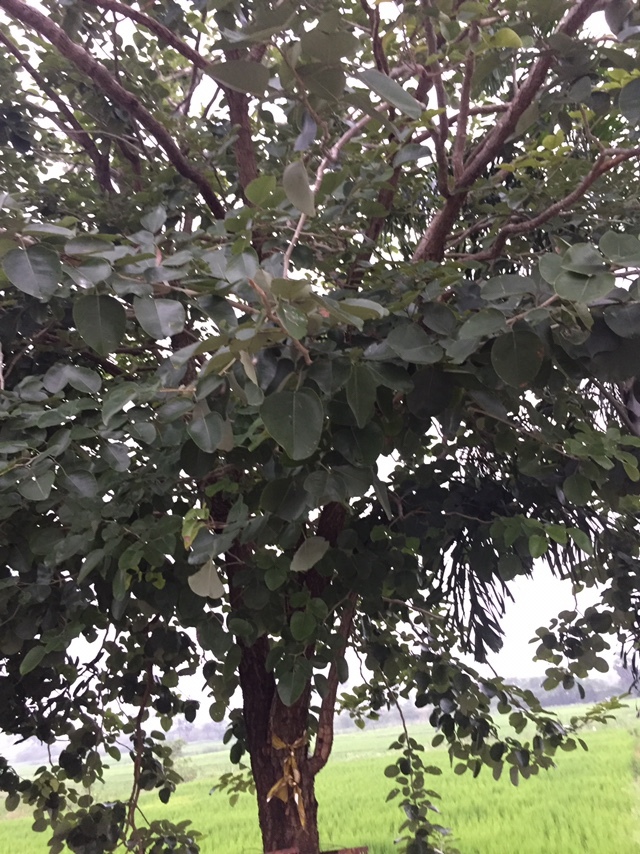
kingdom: Plantae
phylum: Tracheophyta
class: Magnoliopsida
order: Fabales
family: Fabaceae
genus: Pterocarpus
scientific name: Pterocarpus santalinus
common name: Red sanders
